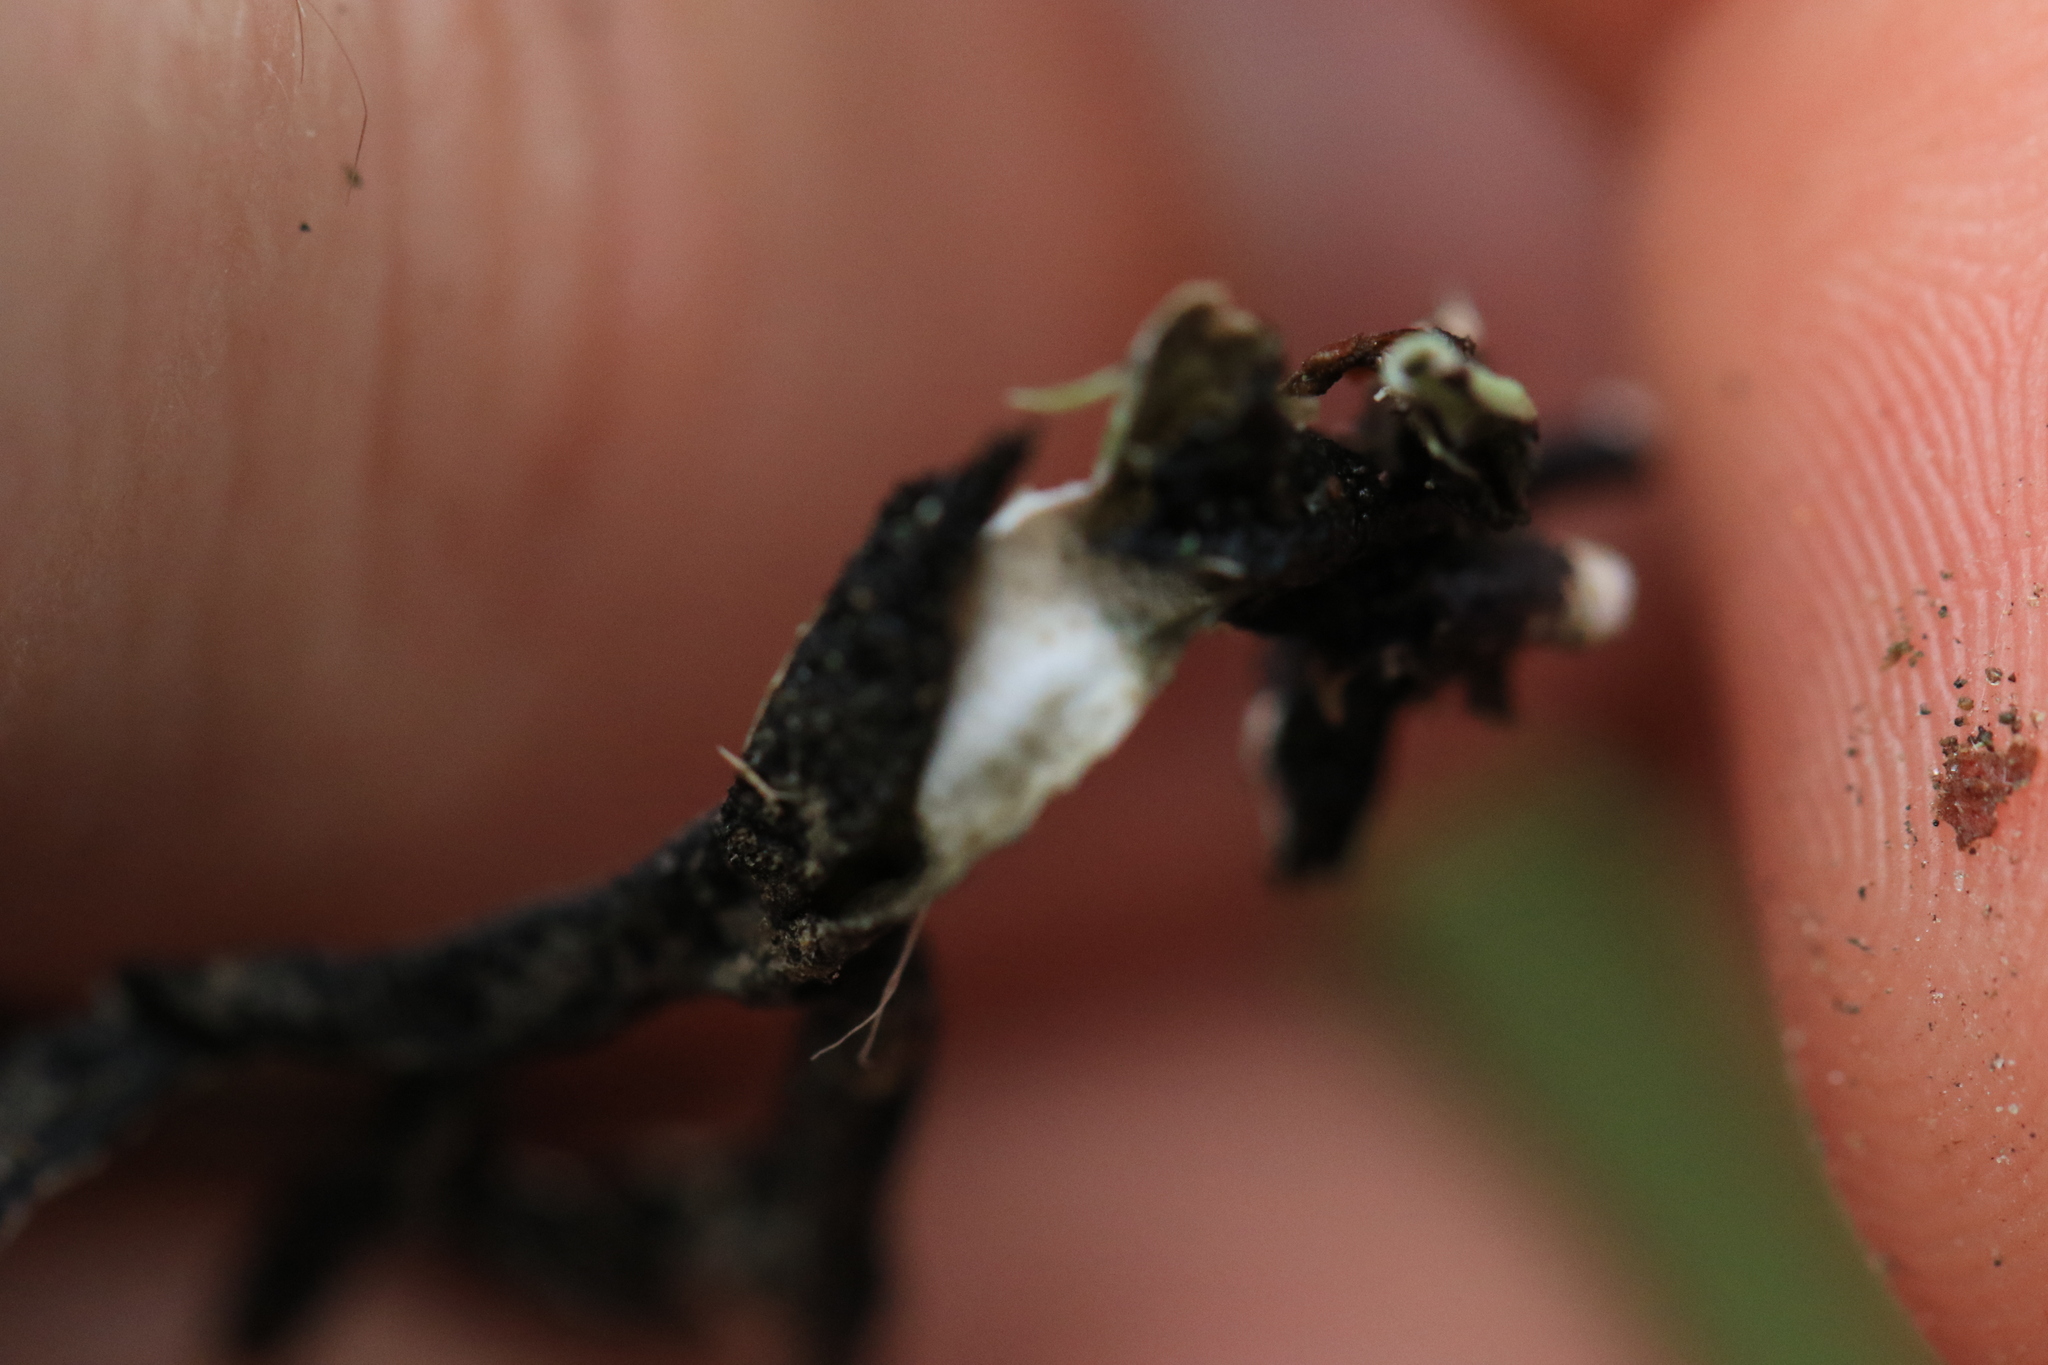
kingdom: Fungi
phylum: Ascomycota
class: Lecanoromycetes
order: Lecanorales
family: Parmeliaceae
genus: Hypogymnia
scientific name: Hypogymnia imshaugii
